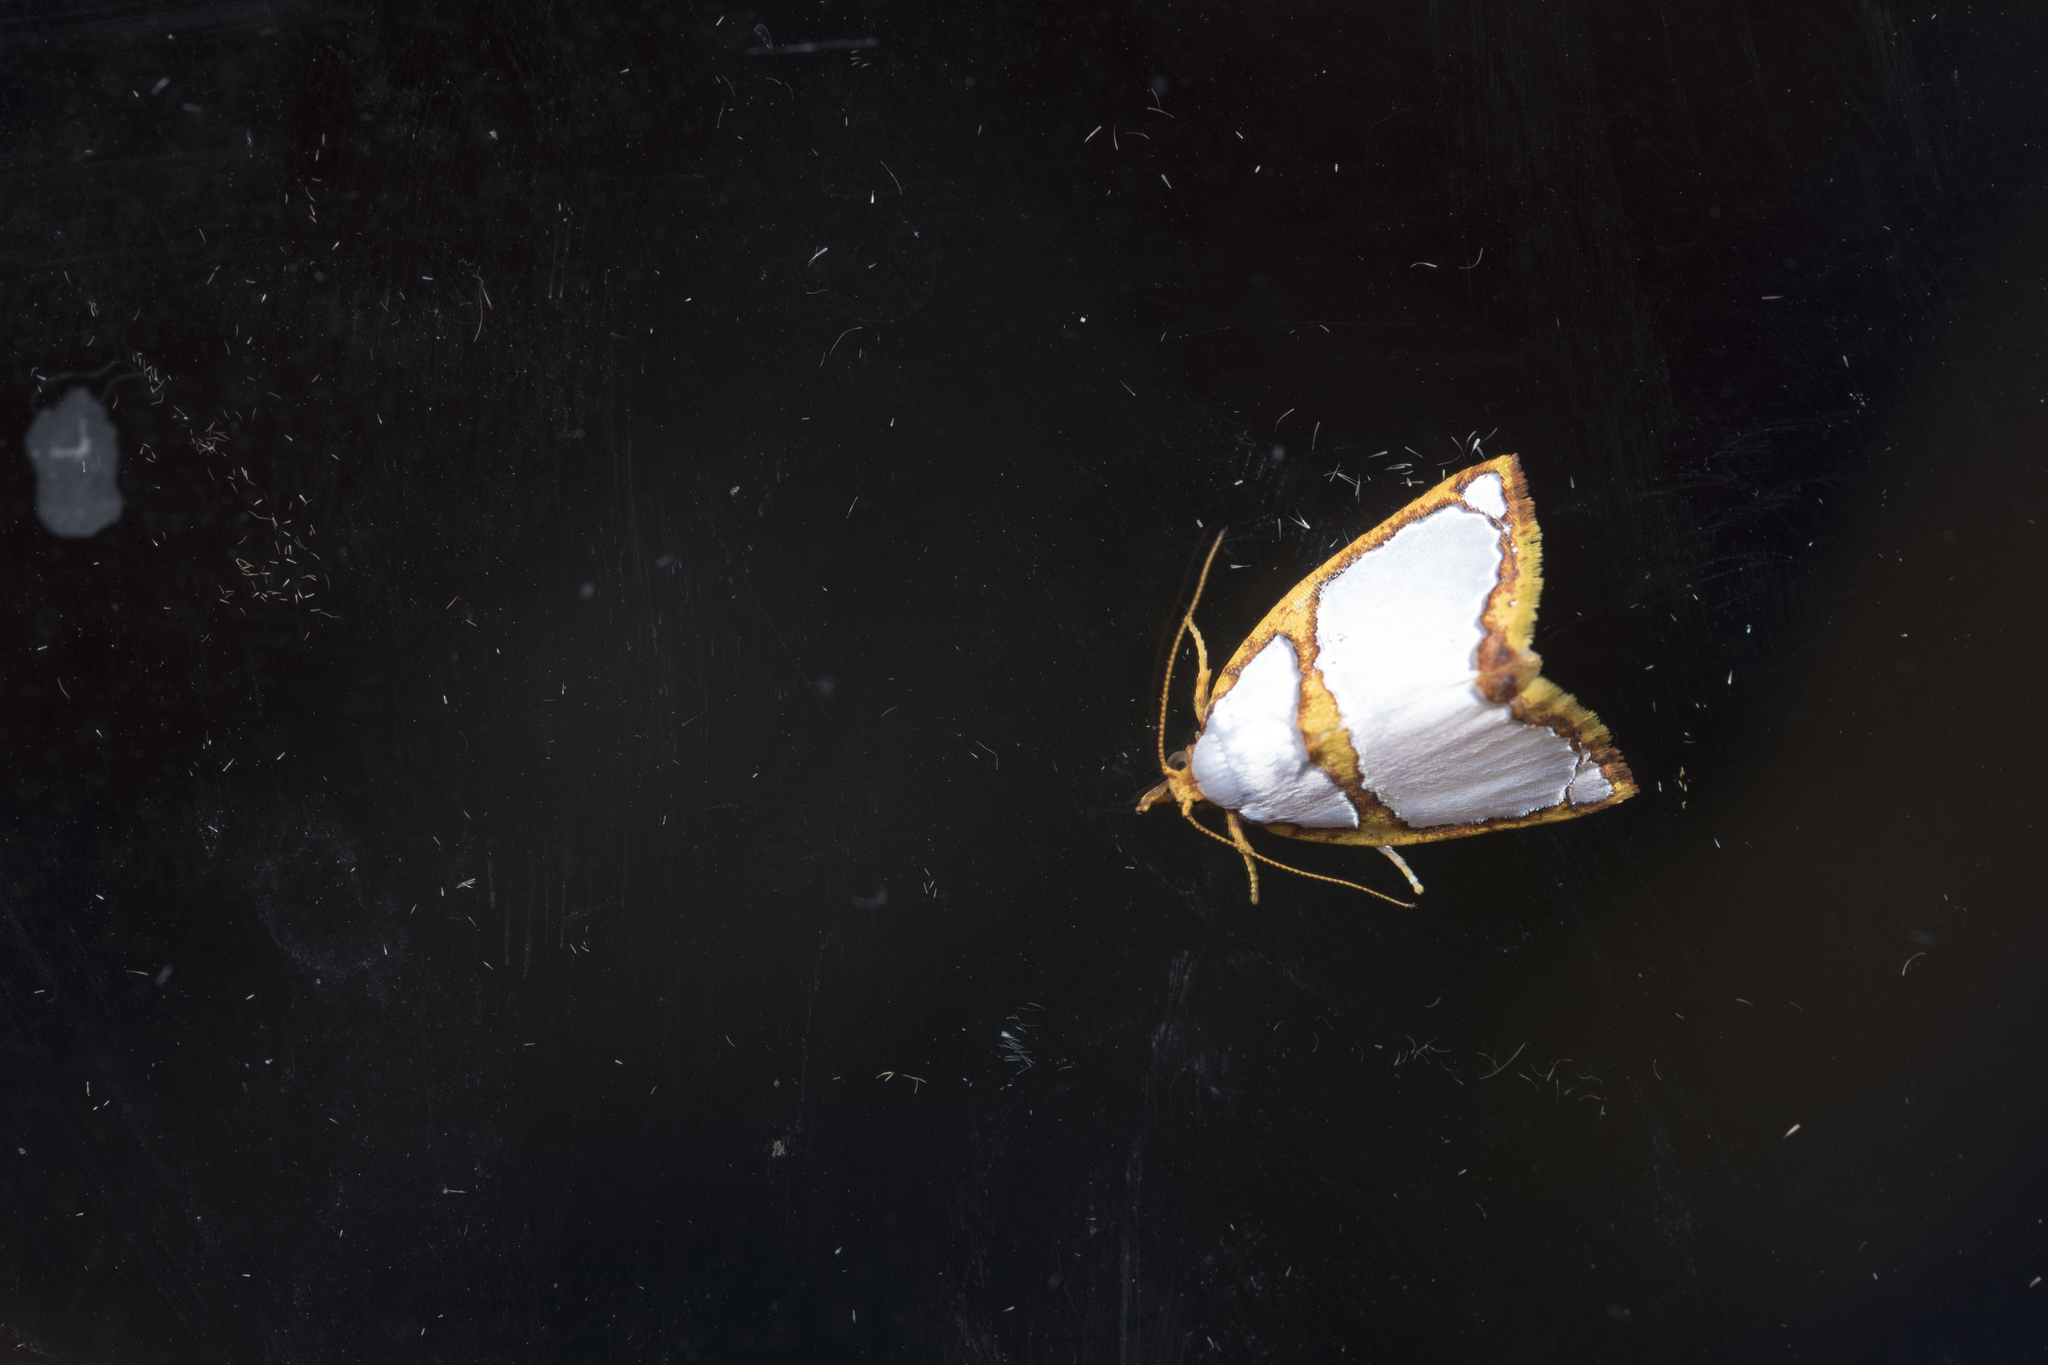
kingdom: Animalia
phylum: Arthropoda
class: Insecta
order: Lepidoptera
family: Nolidae
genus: Titulcia
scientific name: Titulcia confictella
